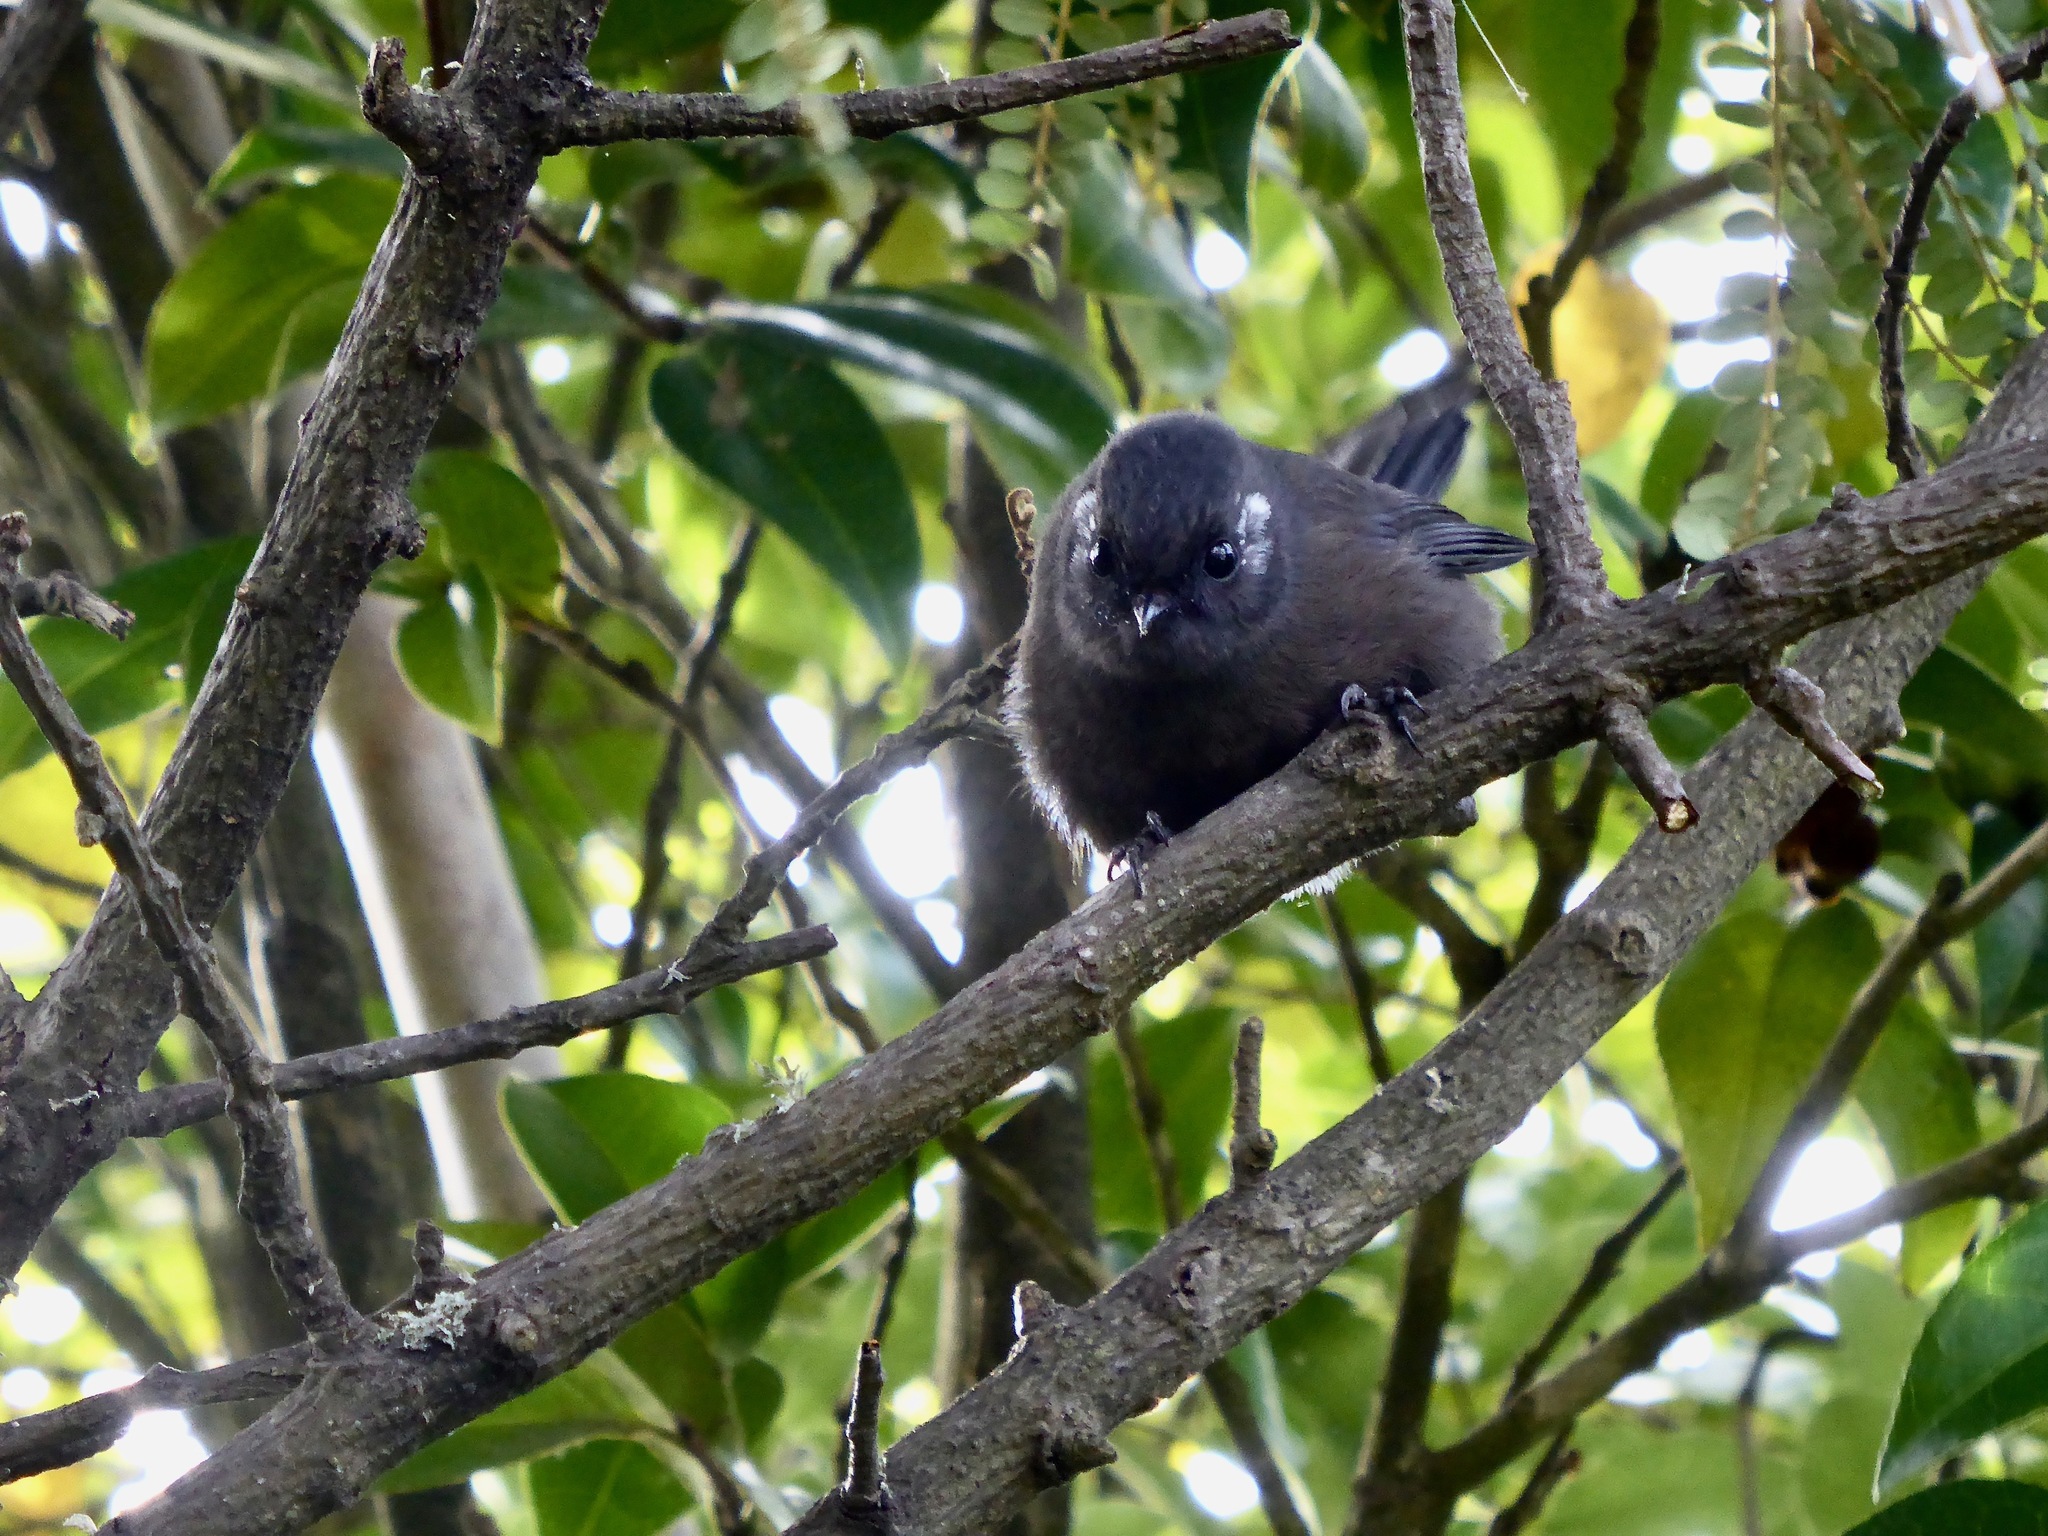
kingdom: Animalia
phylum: Chordata
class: Aves
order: Passeriformes
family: Rhipiduridae
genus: Rhipidura
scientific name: Rhipidura fuliginosa
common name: New zealand fantail
